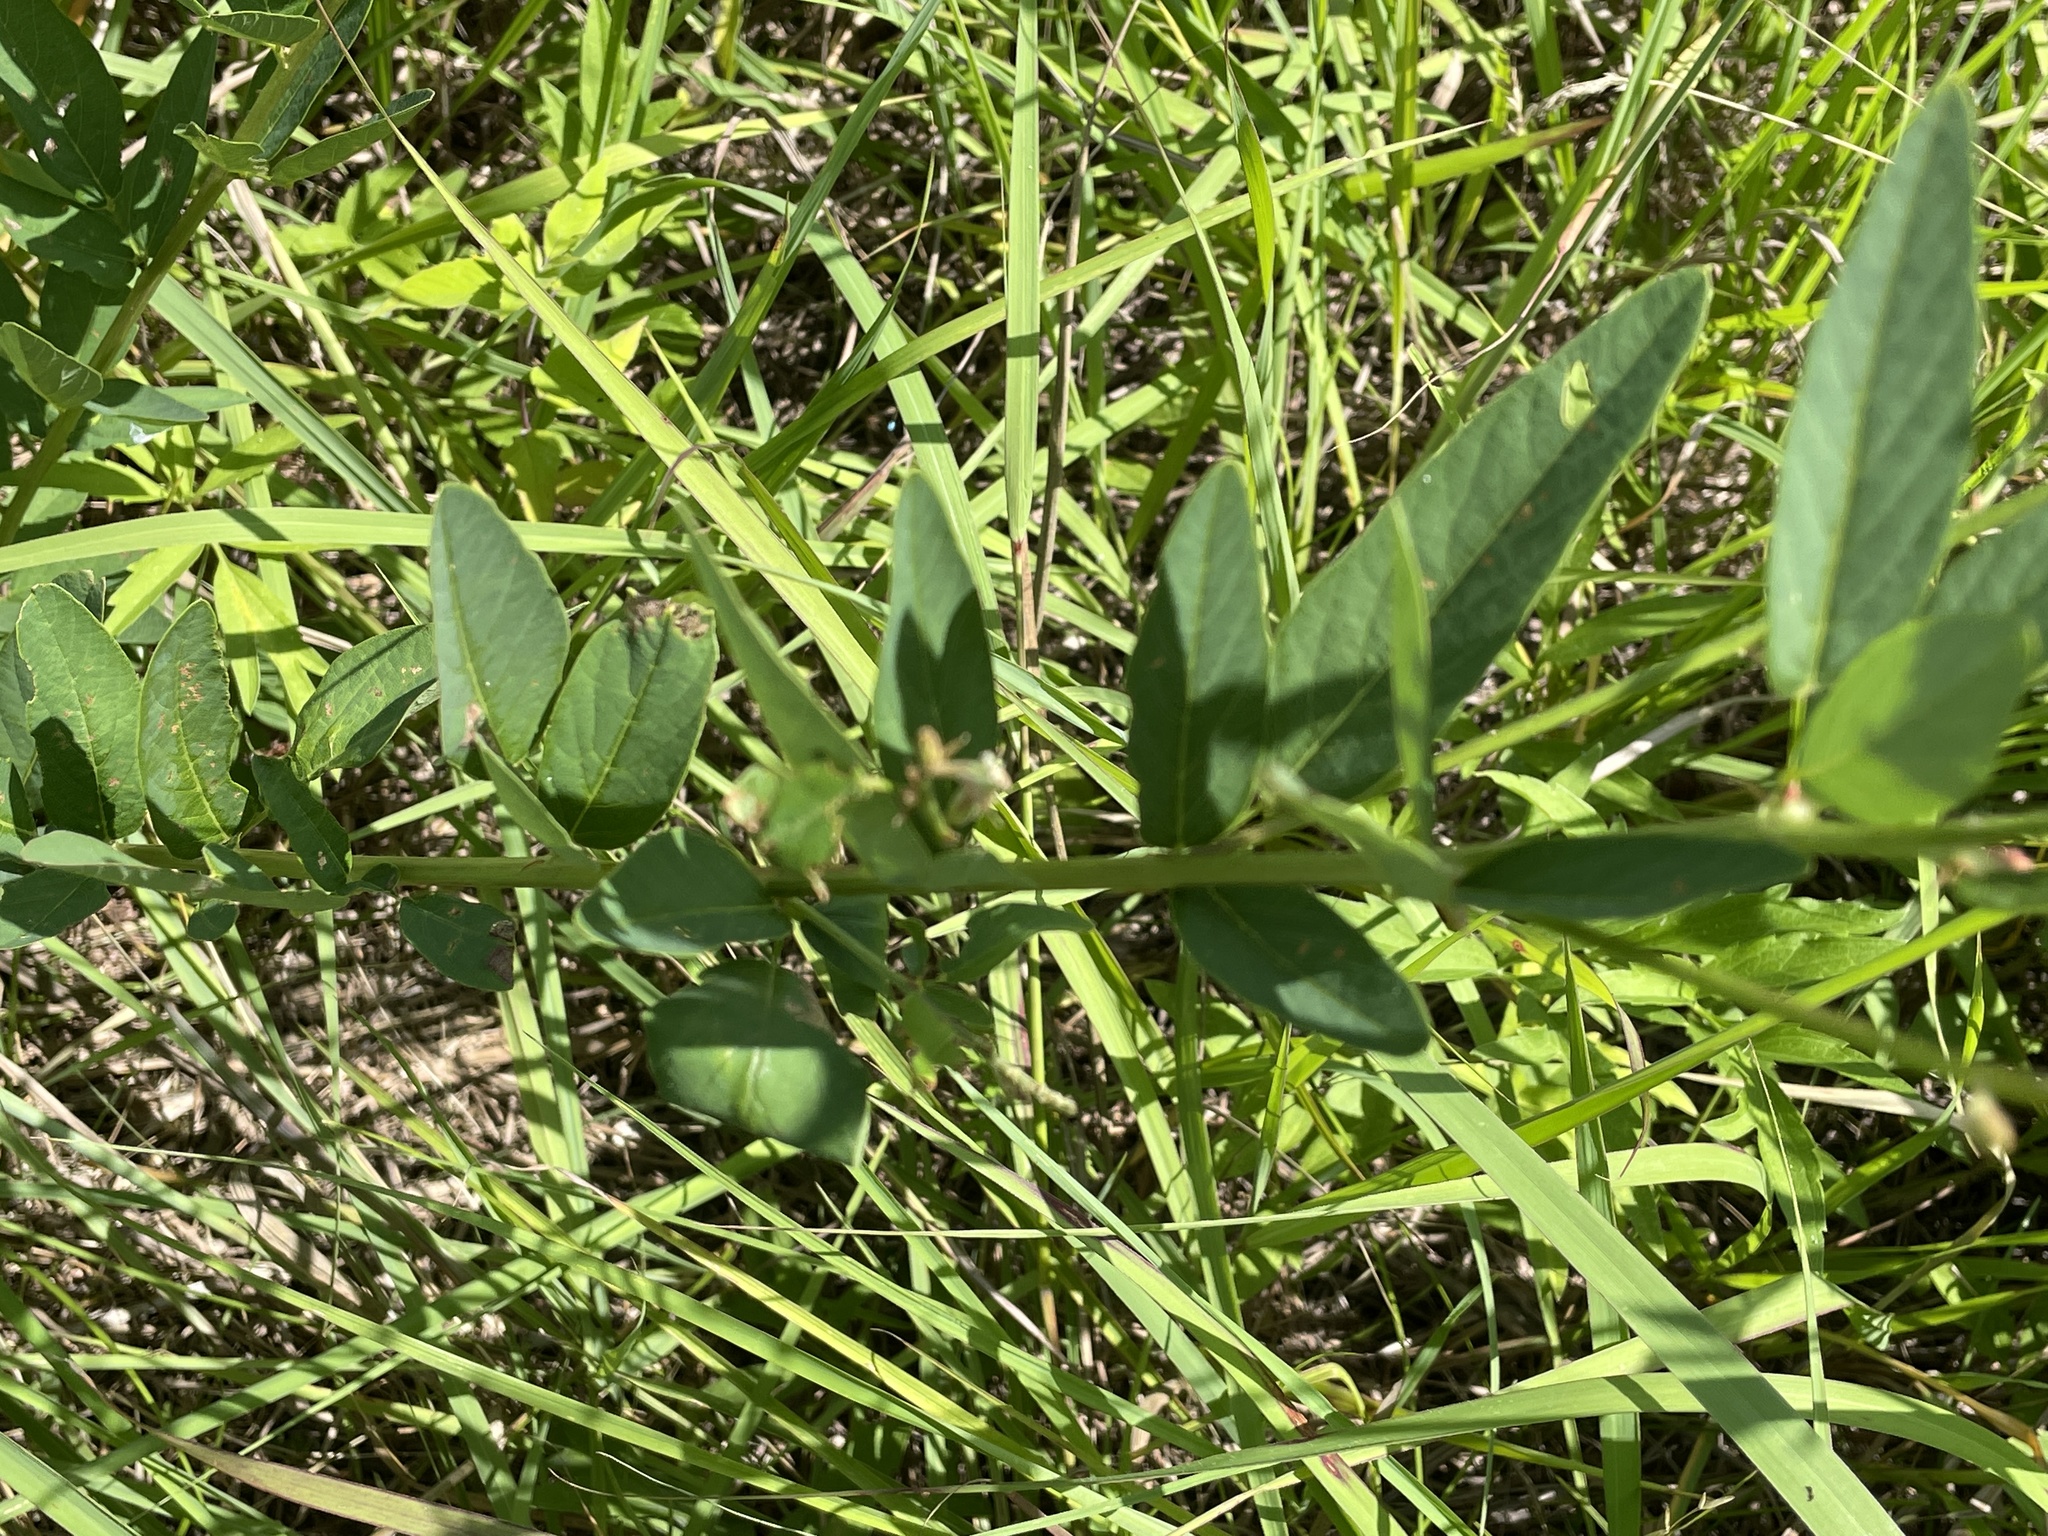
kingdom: Plantae
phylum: Tracheophyta
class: Magnoliopsida
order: Fabales
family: Fabaceae
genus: Desmodium
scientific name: Desmodium canadense
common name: Canada tick-trefoil
